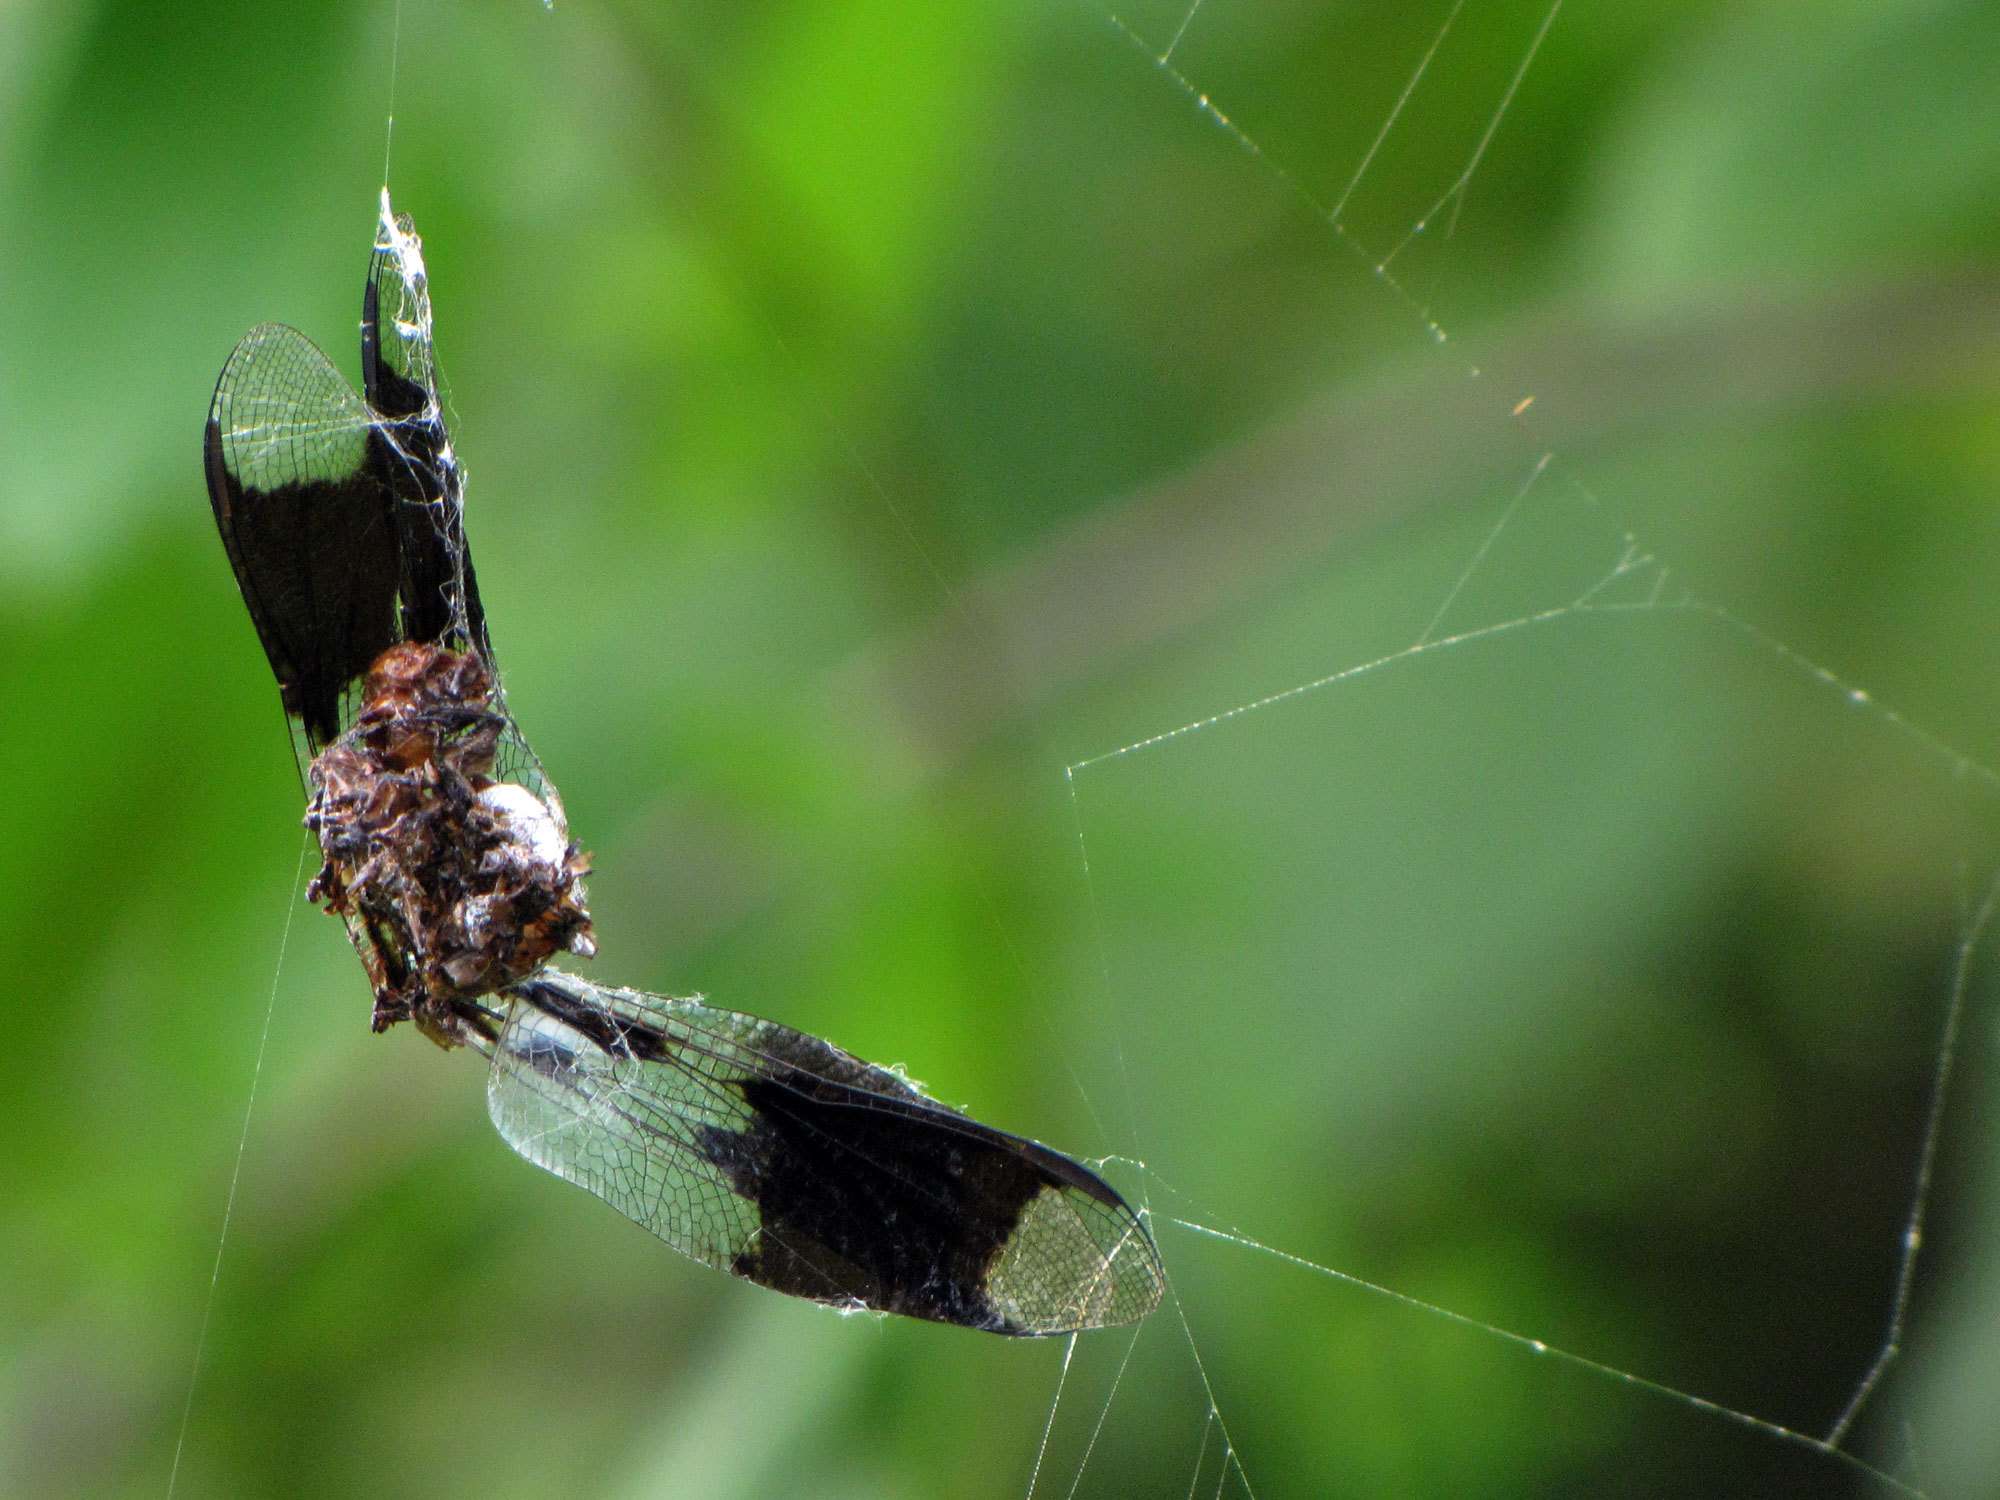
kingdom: Animalia
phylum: Arthropoda
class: Insecta
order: Odonata
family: Libellulidae
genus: Plathemis
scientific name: Plathemis lydia
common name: Common whitetail
